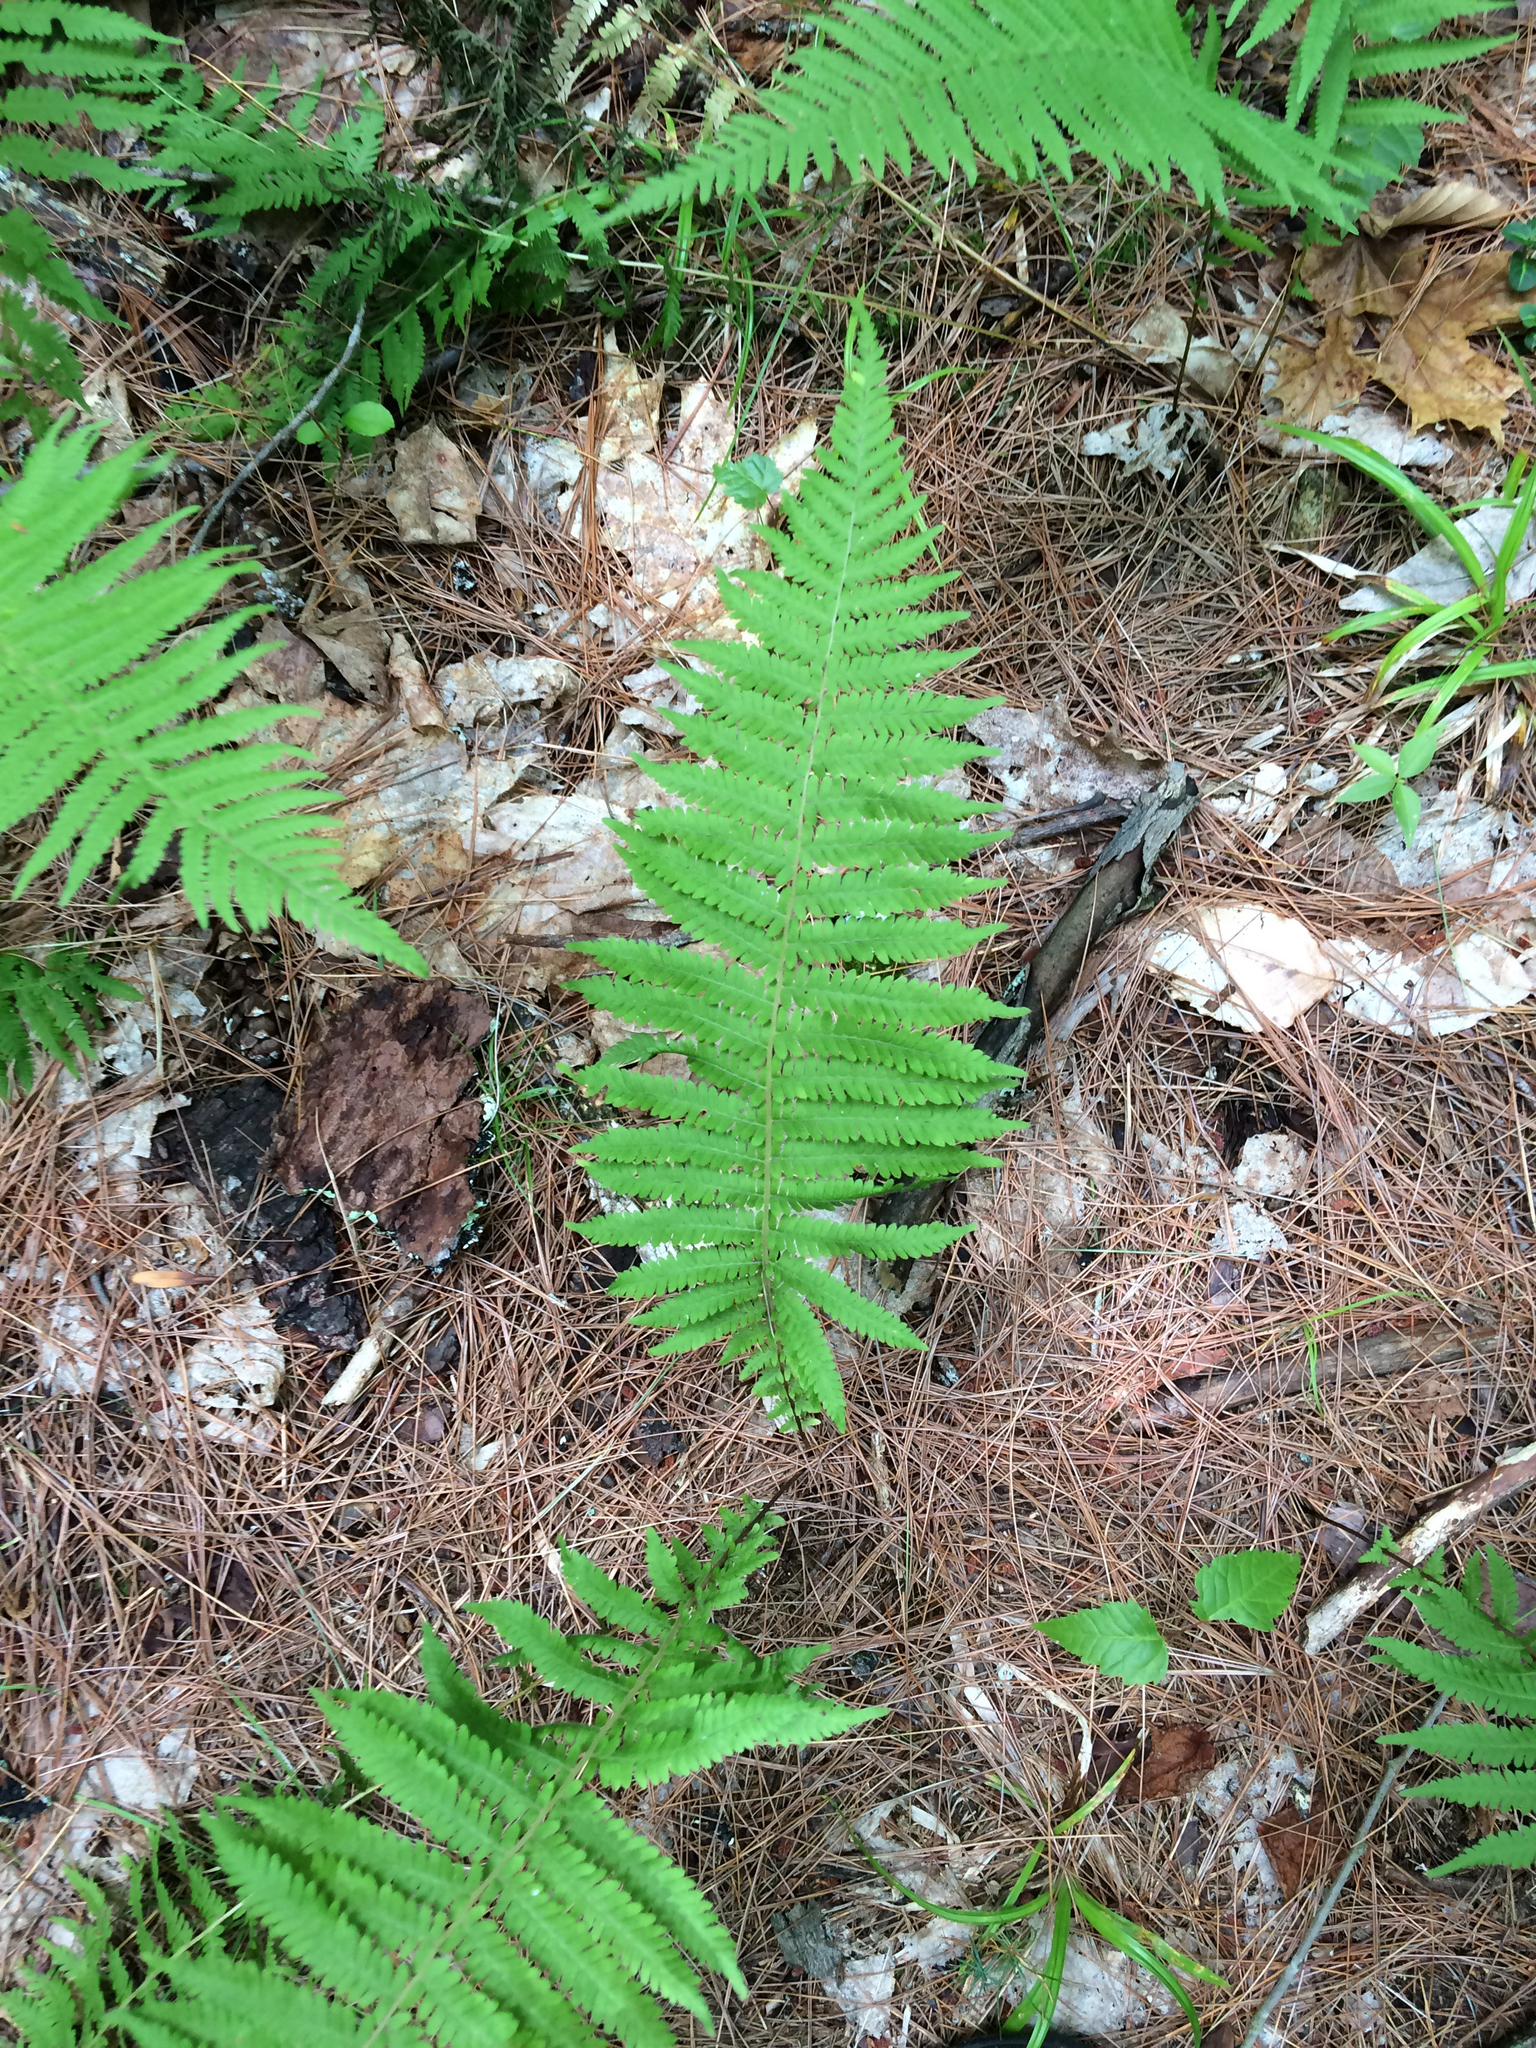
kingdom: Plantae
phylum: Tracheophyta
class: Polypodiopsida
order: Polypodiales
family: Thelypteridaceae
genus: Amauropelta
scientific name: Amauropelta noveboracensis
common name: New york fern
